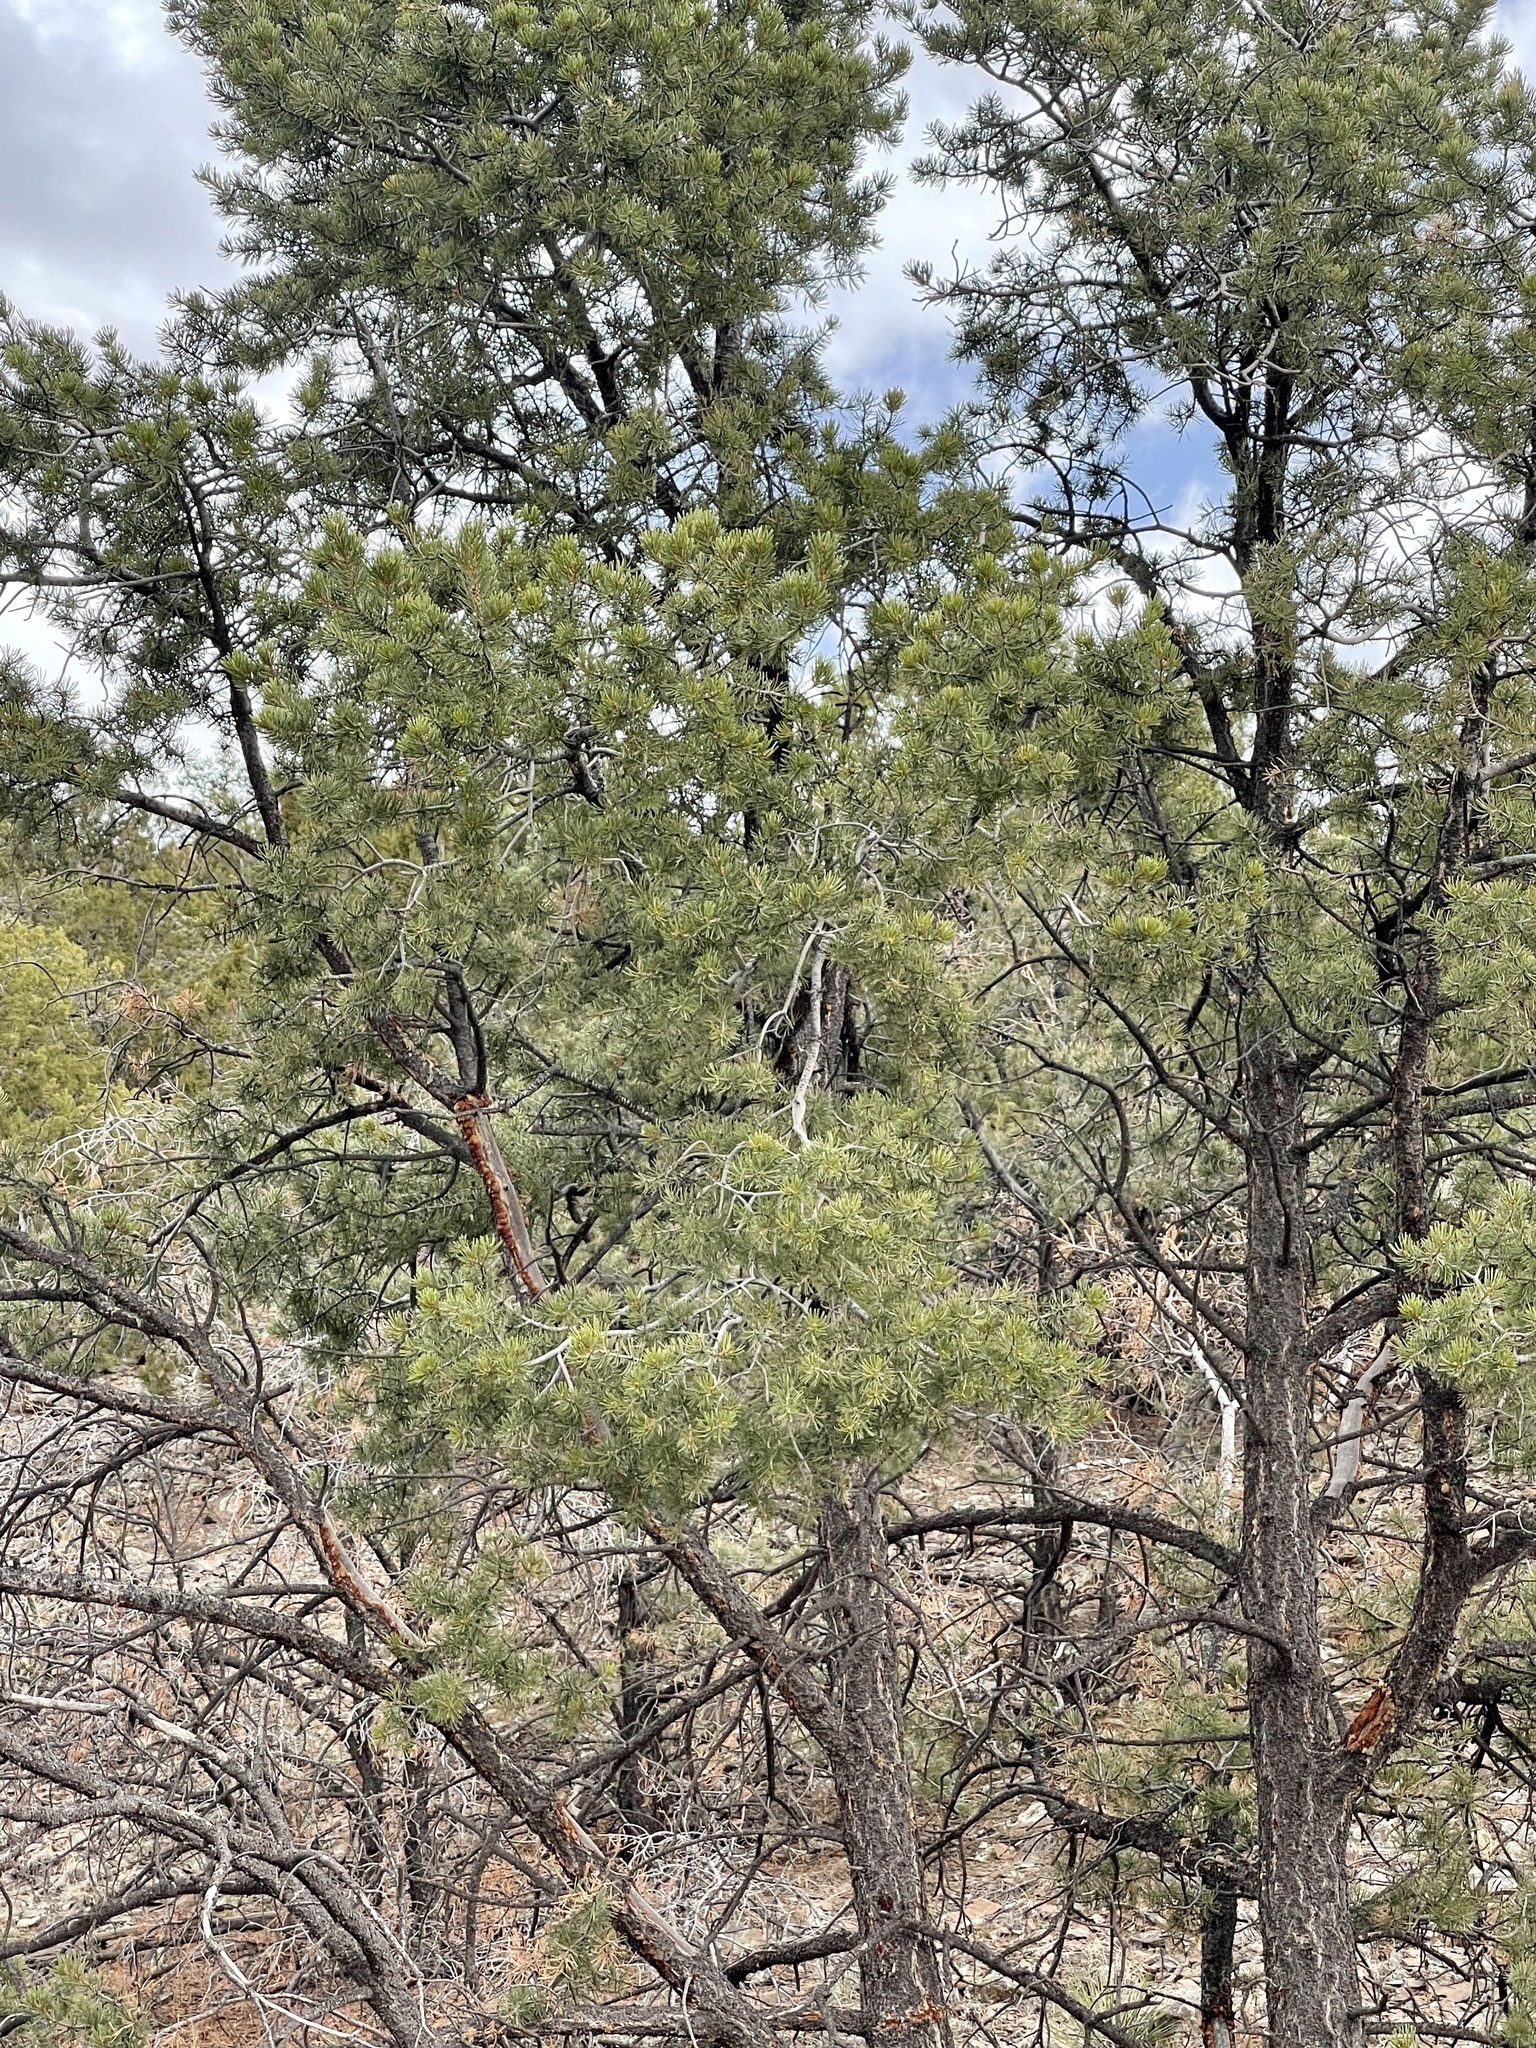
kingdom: Plantae
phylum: Tracheophyta
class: Pinopsida
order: Pinales
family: Pinaceae
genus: Pinus
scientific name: Pinus edulis
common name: Colorado pinyon
